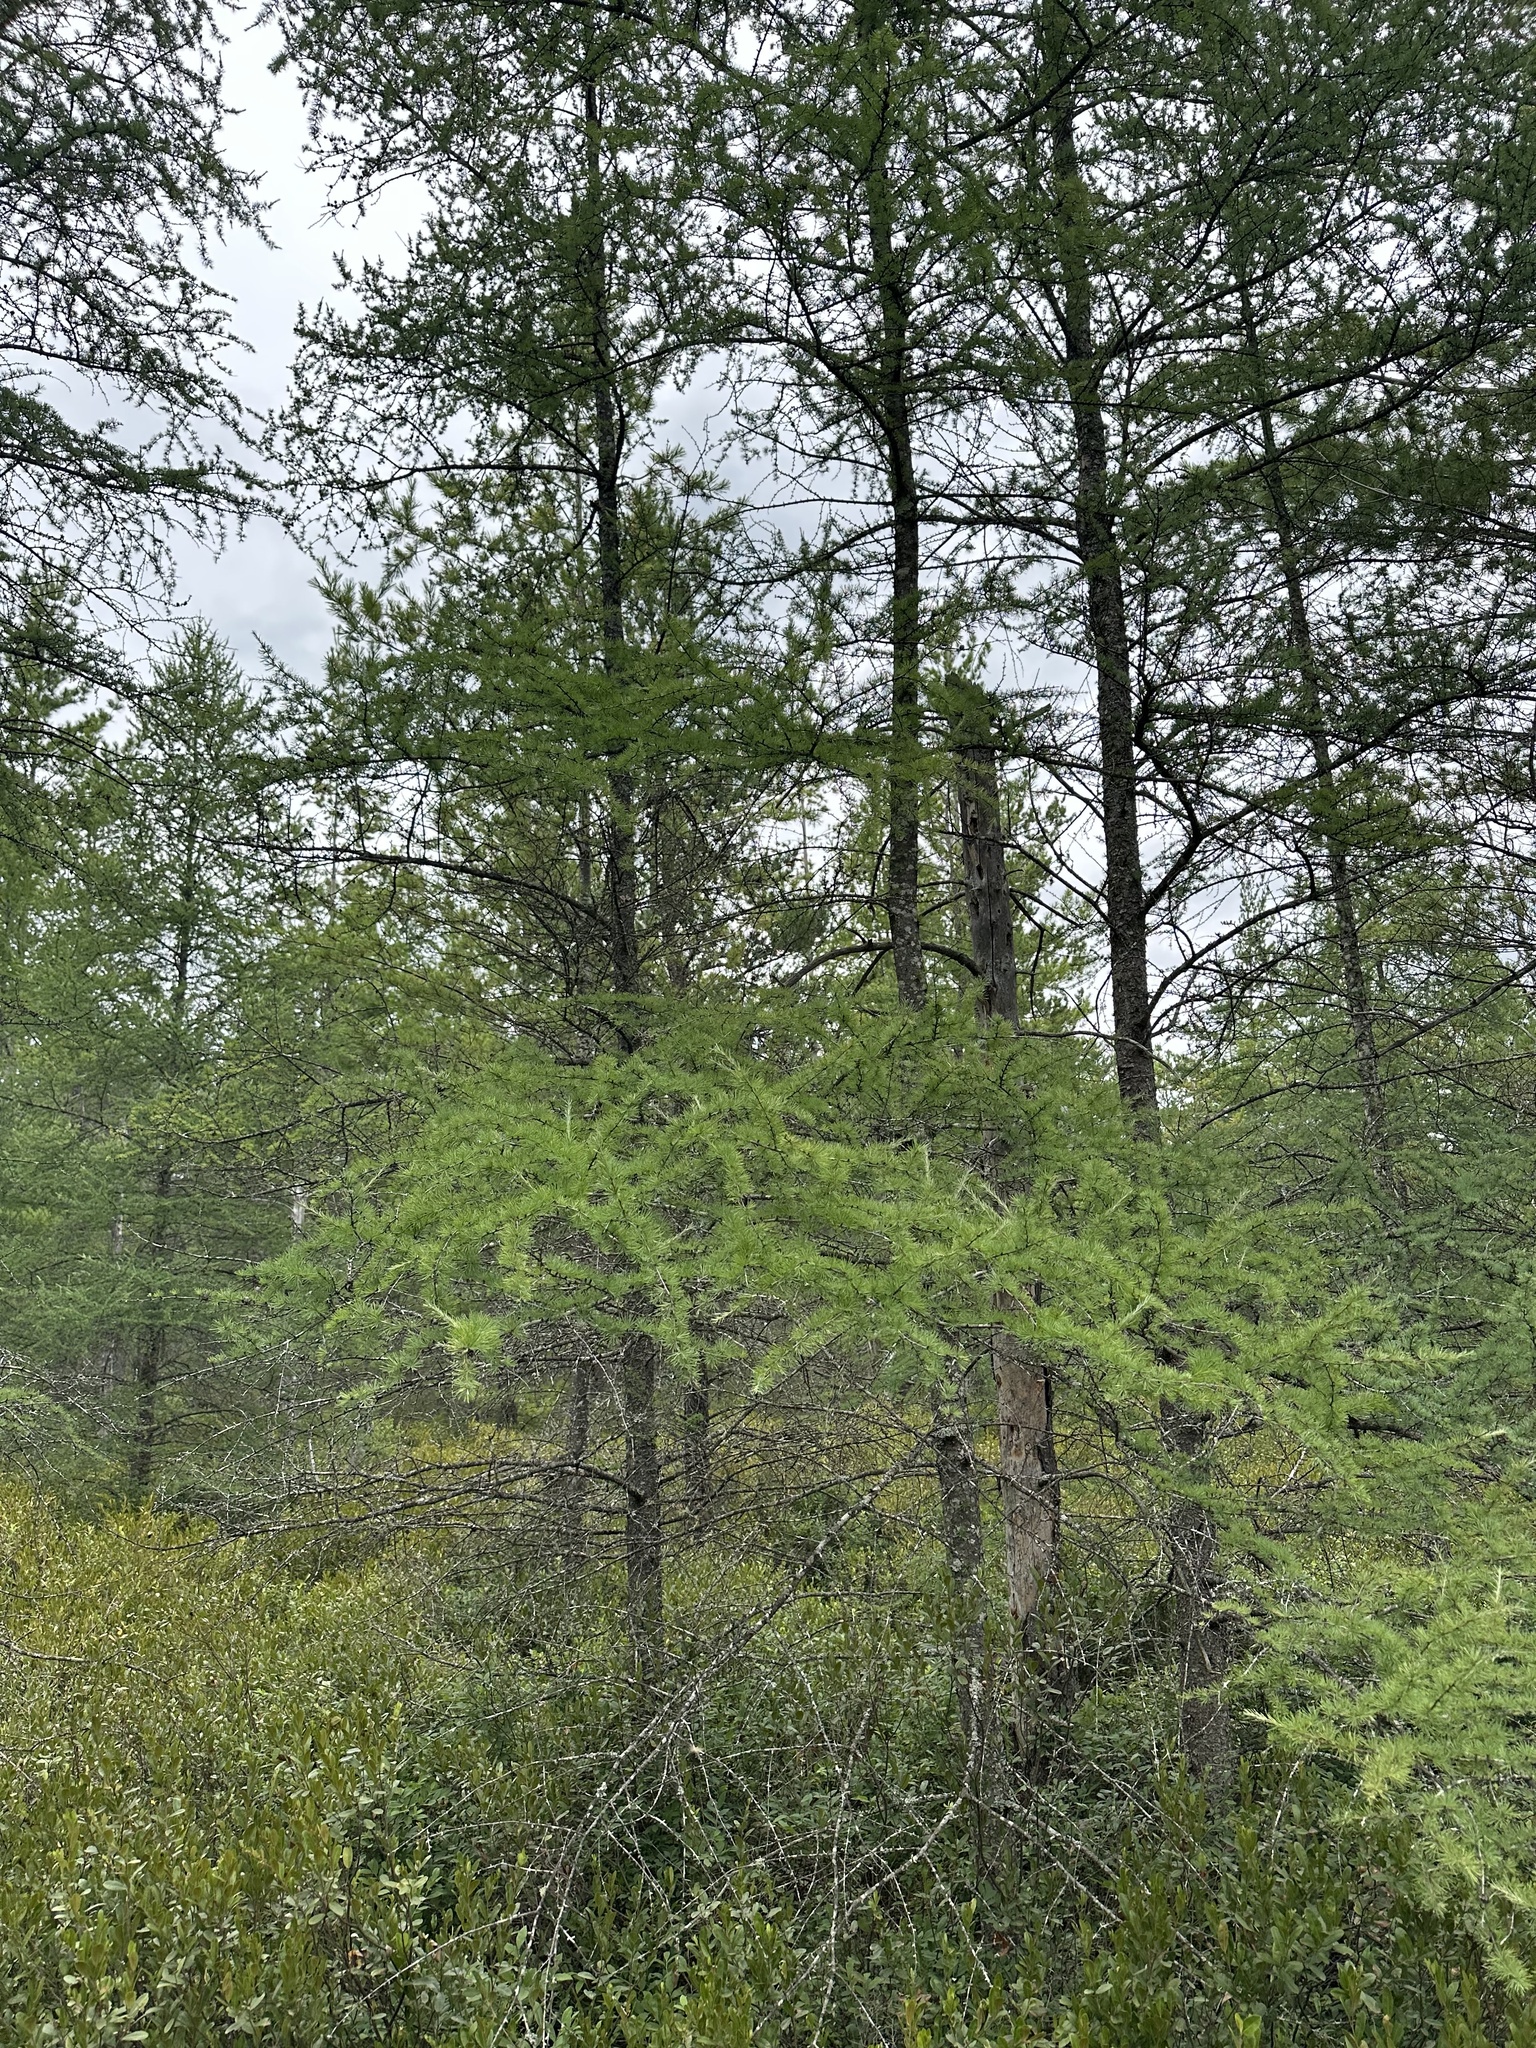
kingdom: Plantae
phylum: Tracheophyta
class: Pinopsida
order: Pinales
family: Pinaceae
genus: Larix
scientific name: Larix laricina
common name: American larch
